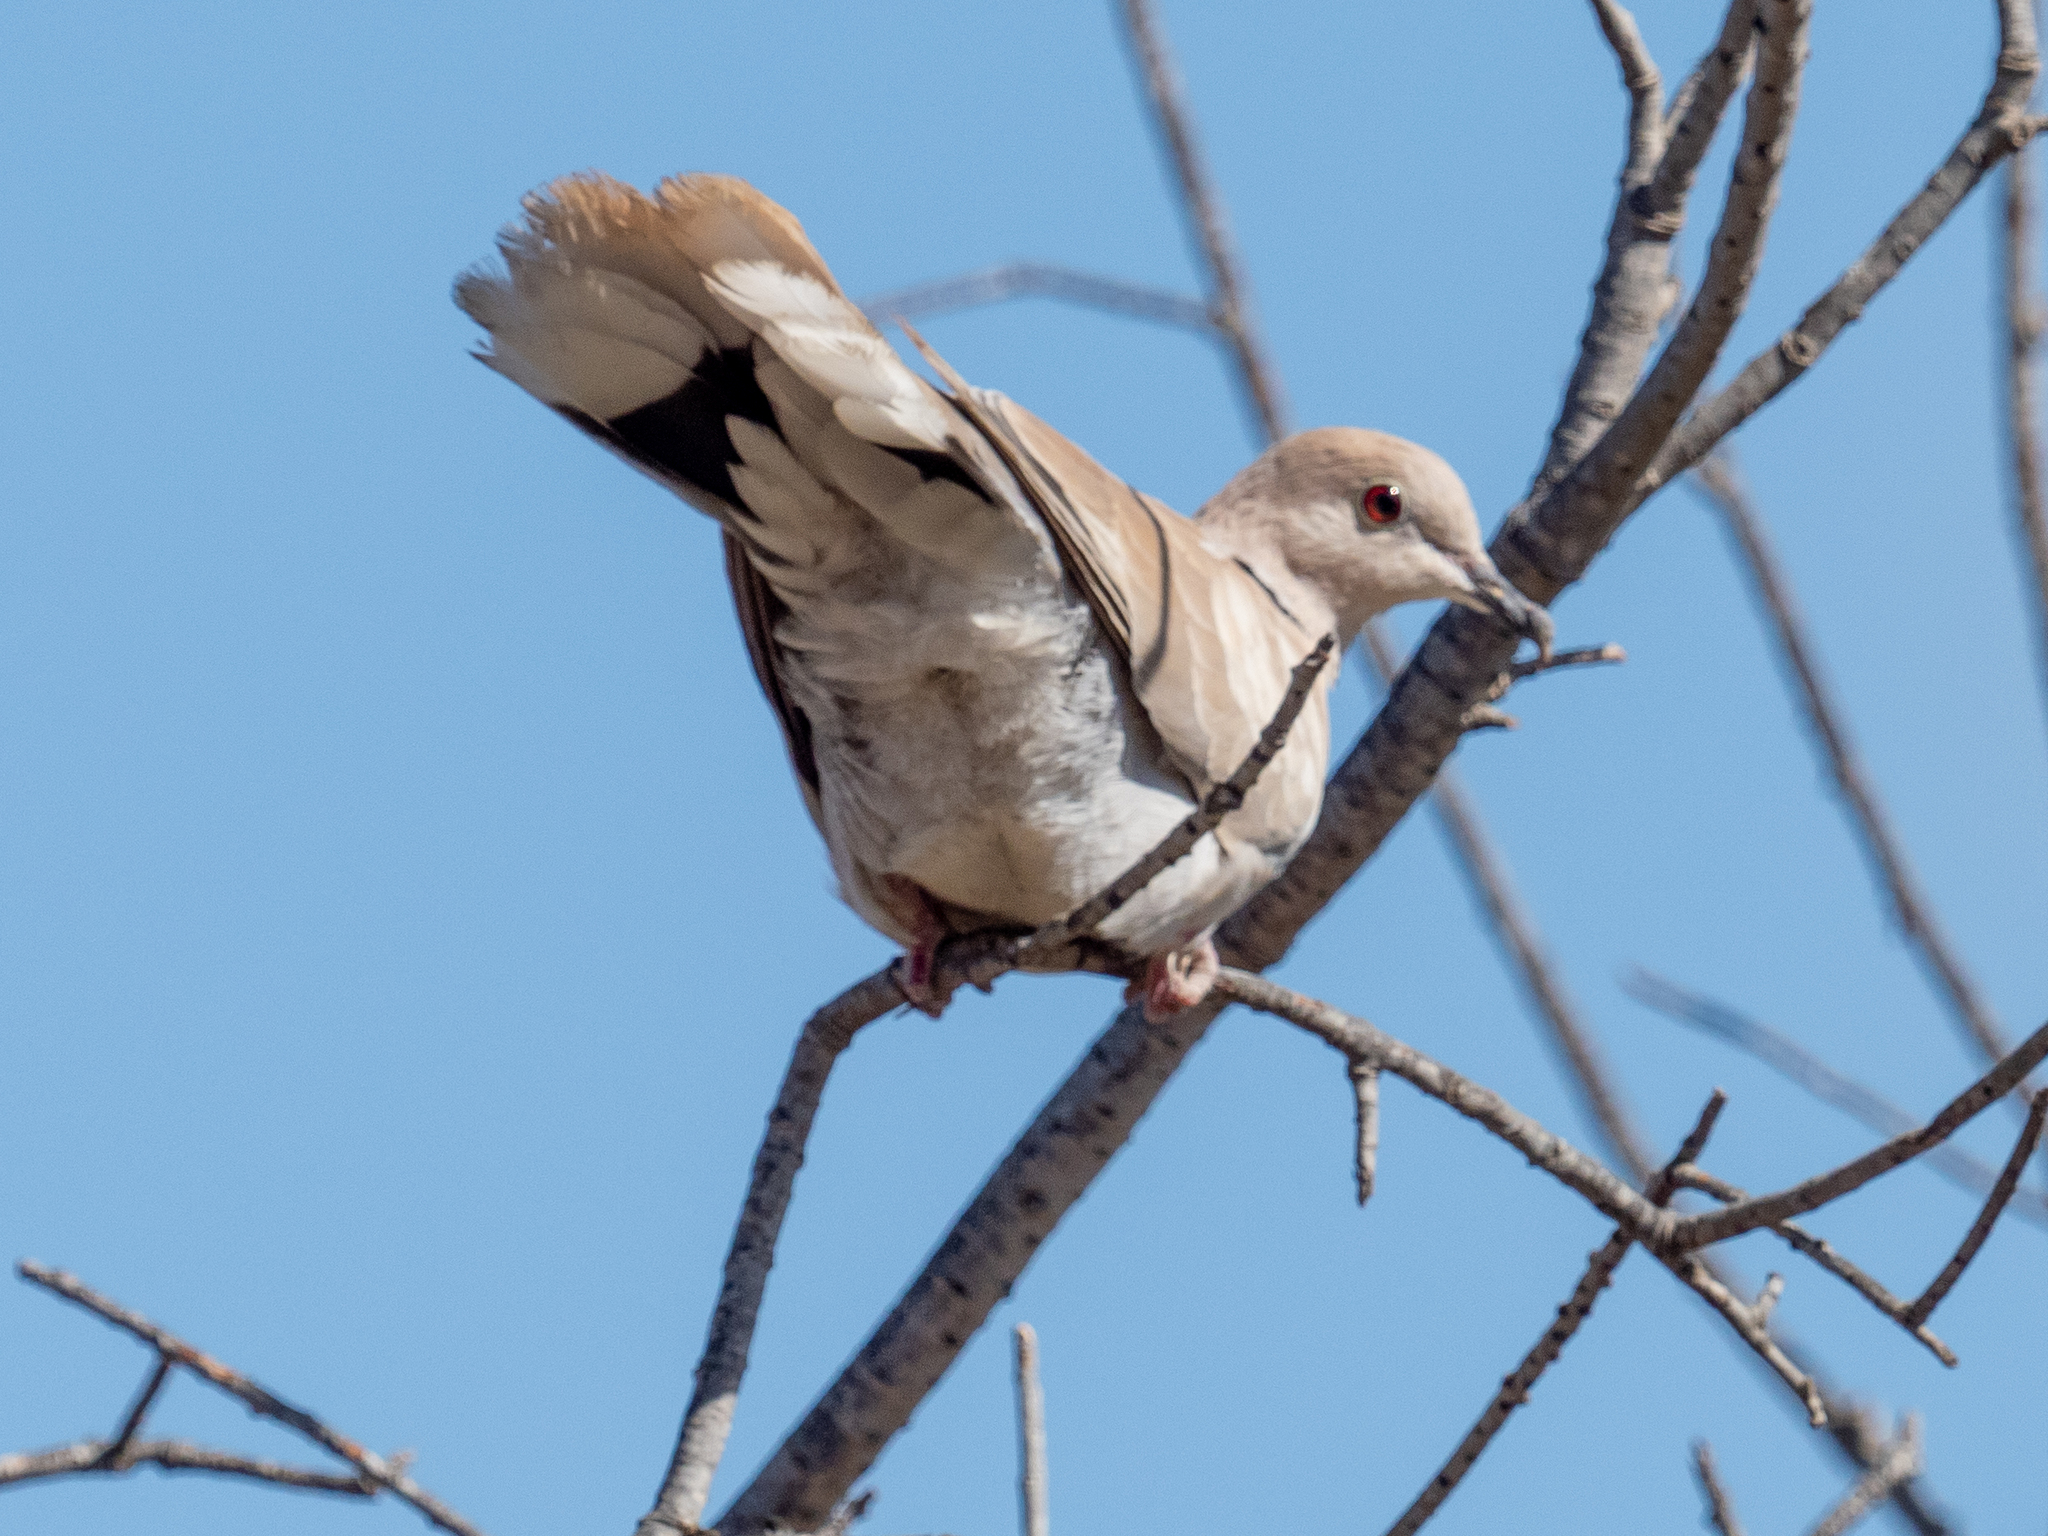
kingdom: Animalia
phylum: Chordata
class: Aves
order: Columbiformes
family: Columbidae
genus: Streptopelia
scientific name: Streptopelia decaocto
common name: Eurasian collared dove
